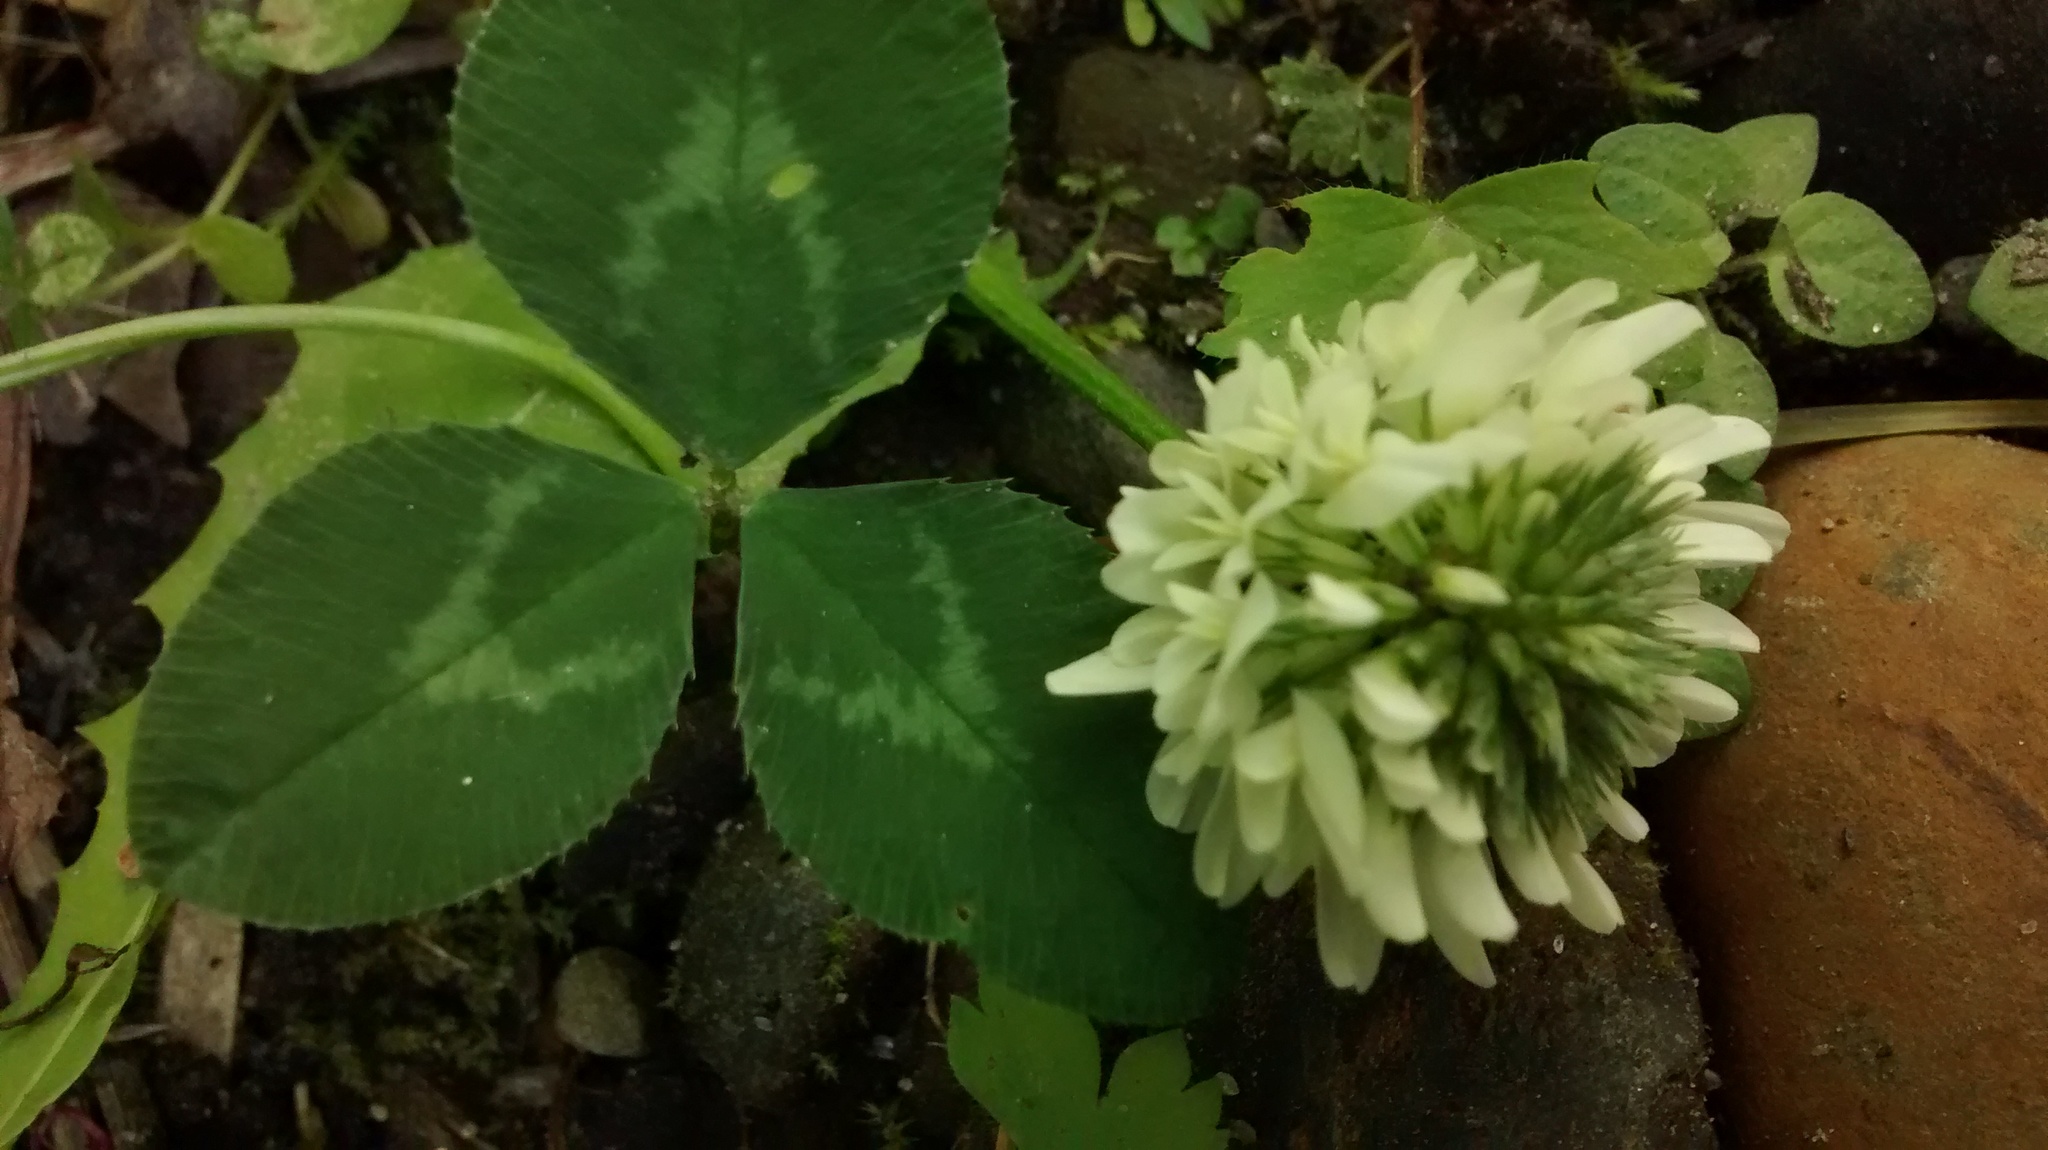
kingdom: Plantae
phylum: Tracheophyta
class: Magnoliopsida
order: Fabales
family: Fabaceae
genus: Trifolium
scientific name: Trifolium repens
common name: White clover
